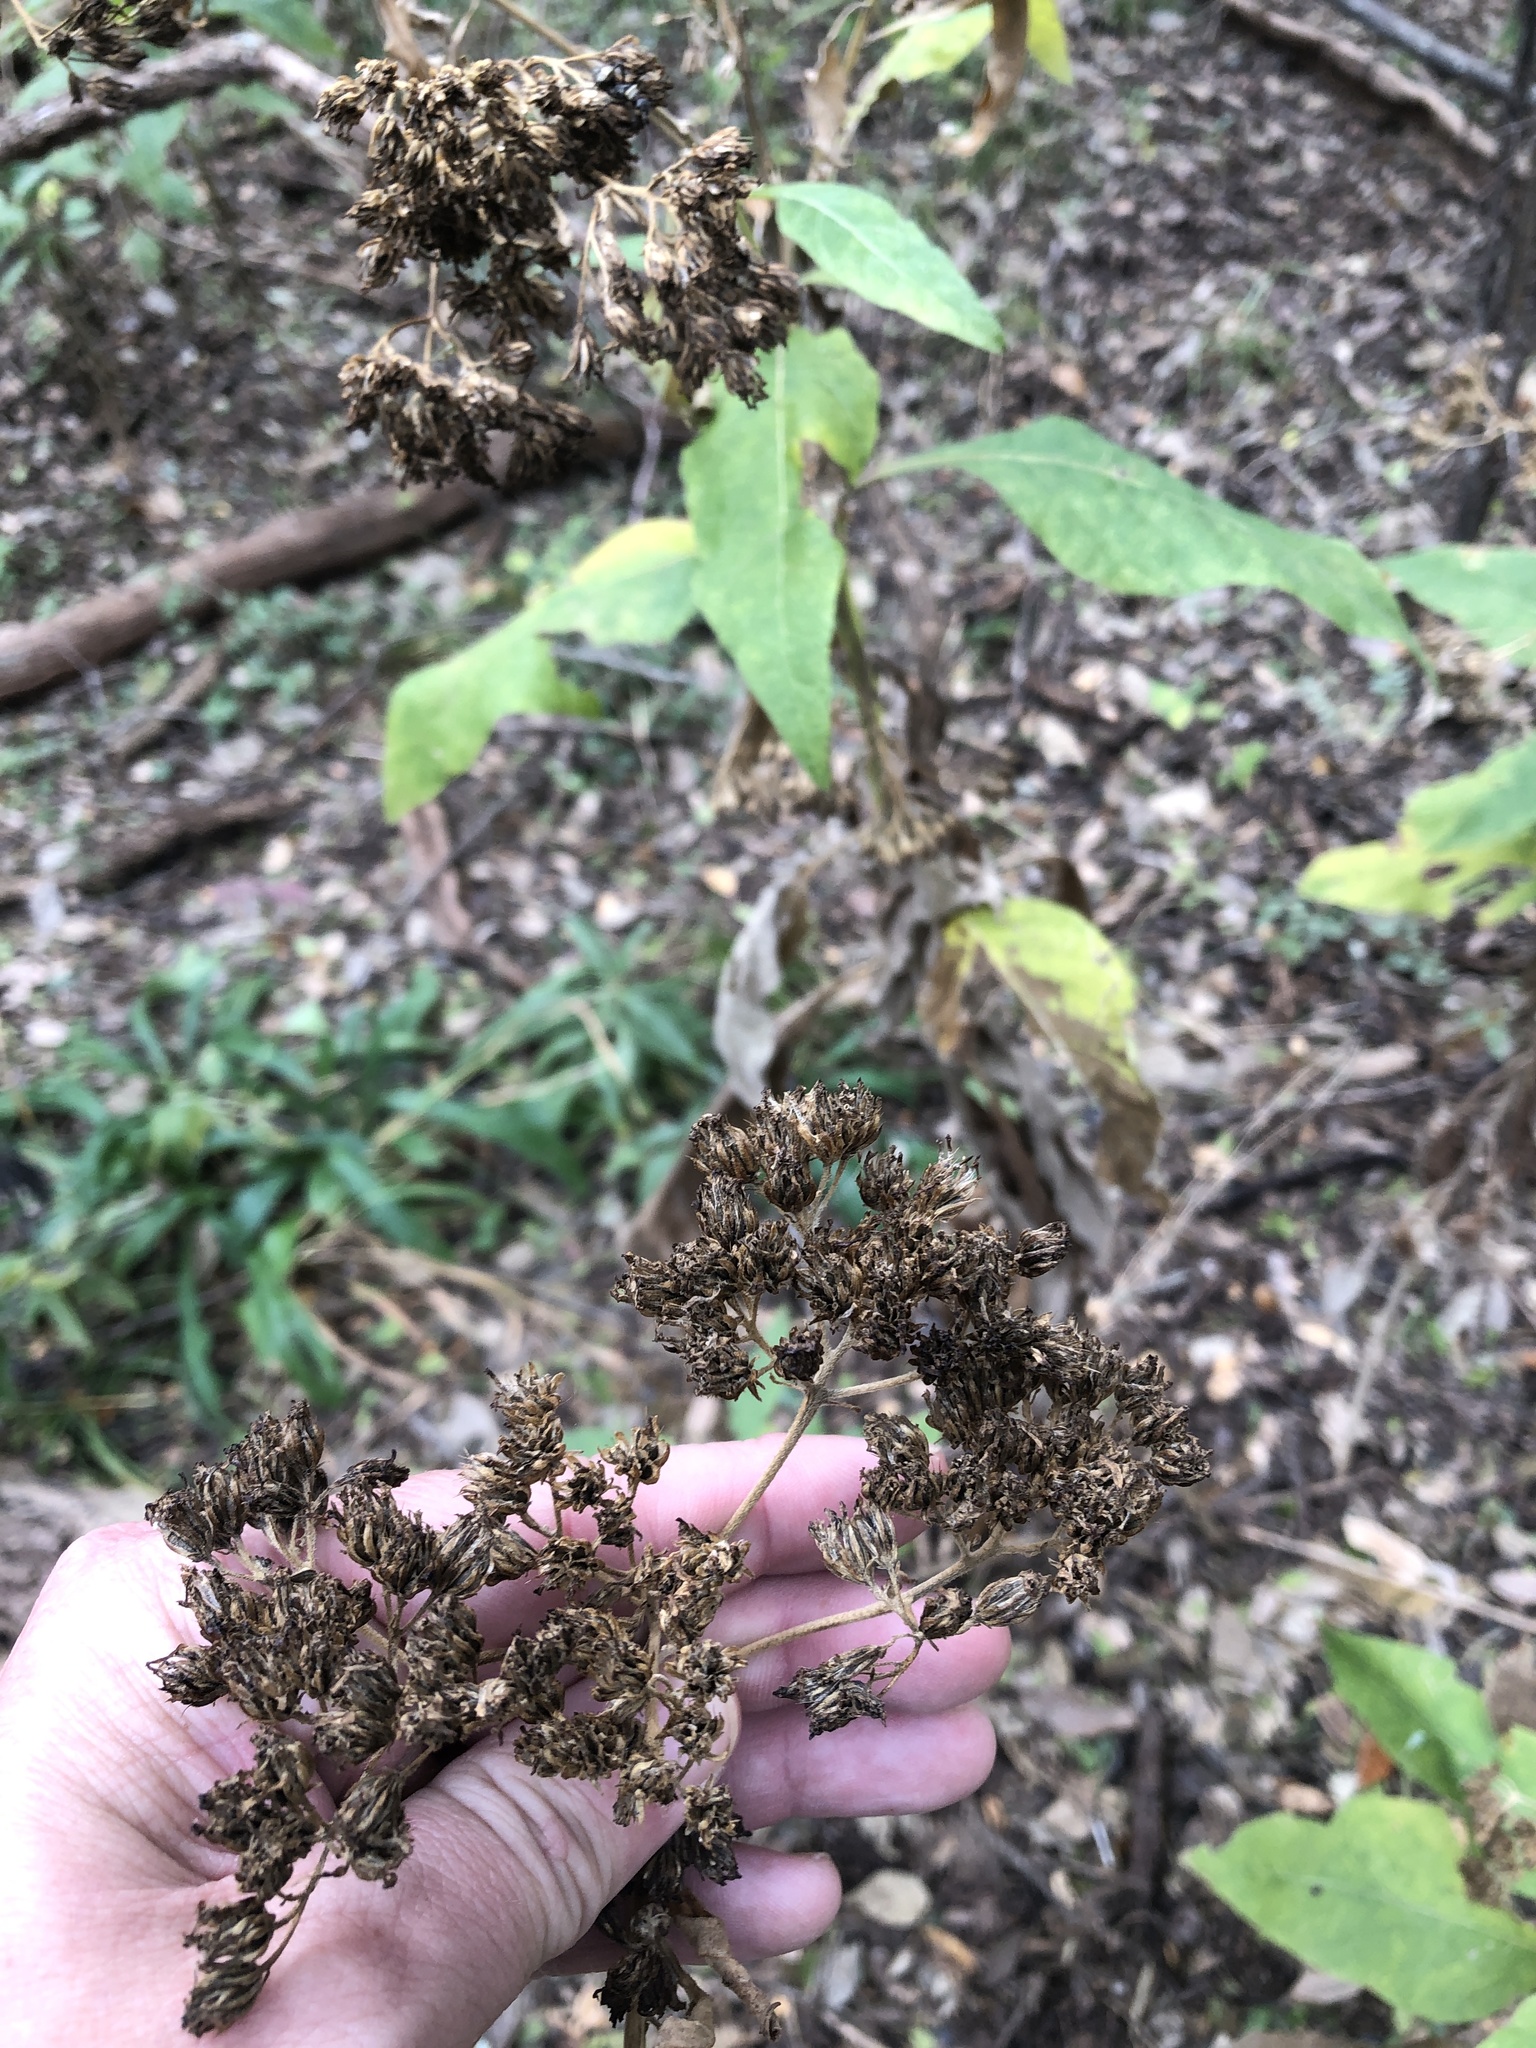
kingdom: Plantae
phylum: Tracheophyta
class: Magnoliopsida
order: Asterales
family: Asteraceae
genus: Verbesina
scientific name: Verbesina virginica
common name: Frostweed
